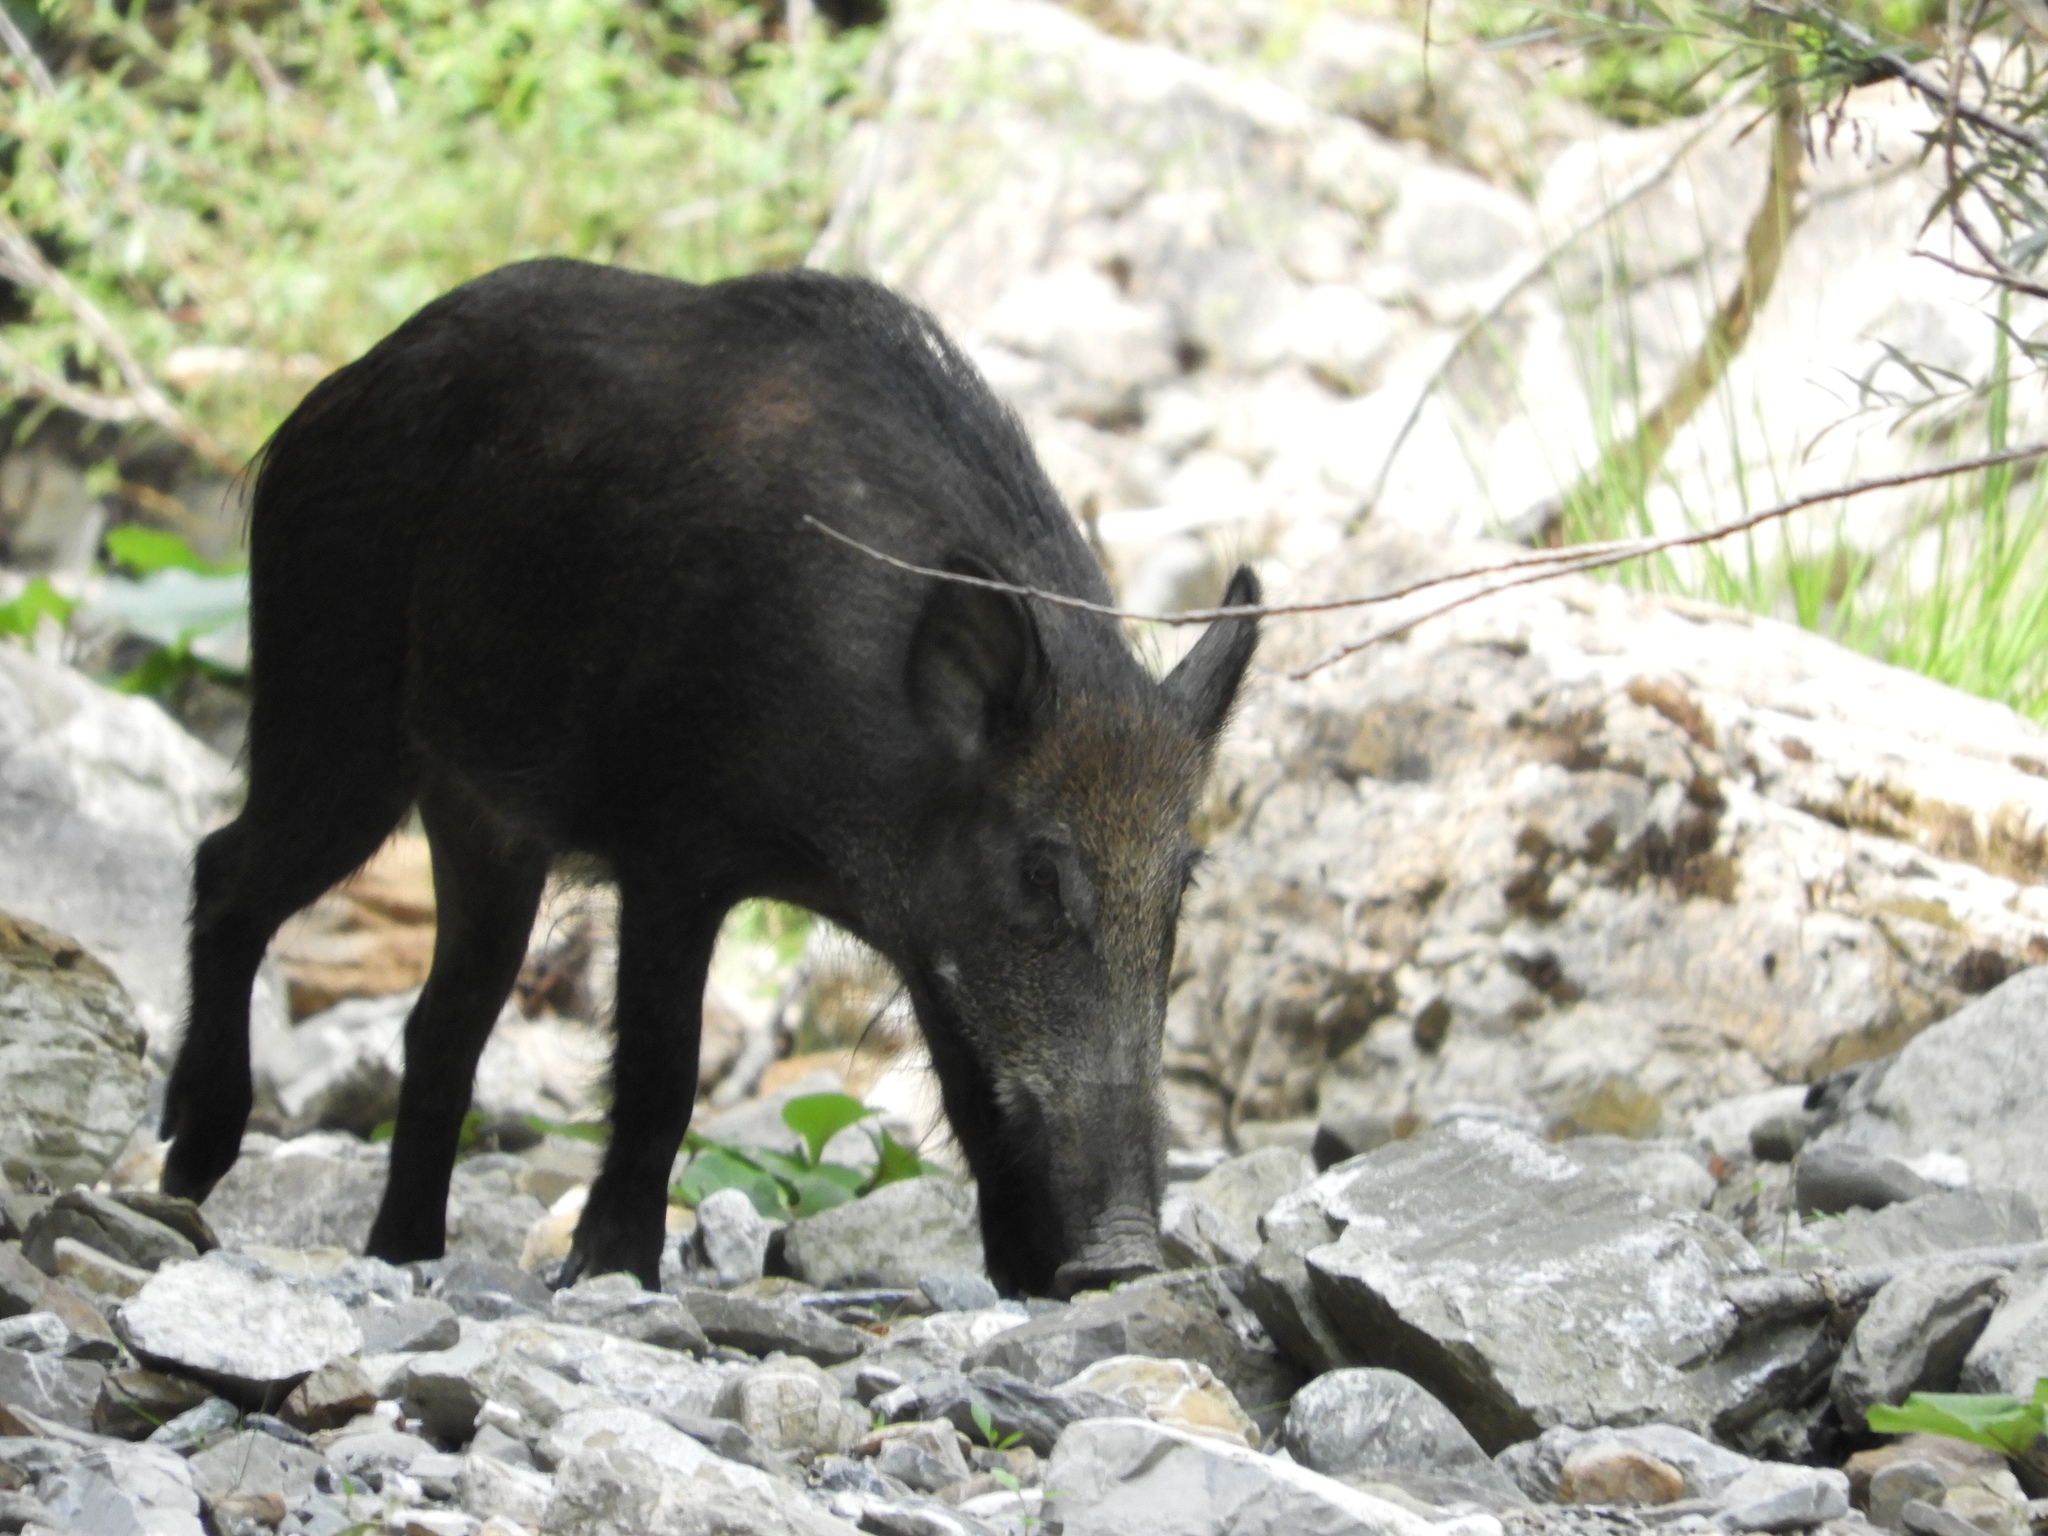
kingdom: Animalia
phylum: Chordata
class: Mammalia
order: Artiodactyla
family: Suidae
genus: Sus
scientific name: Sus scrofa
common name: Wild boar
